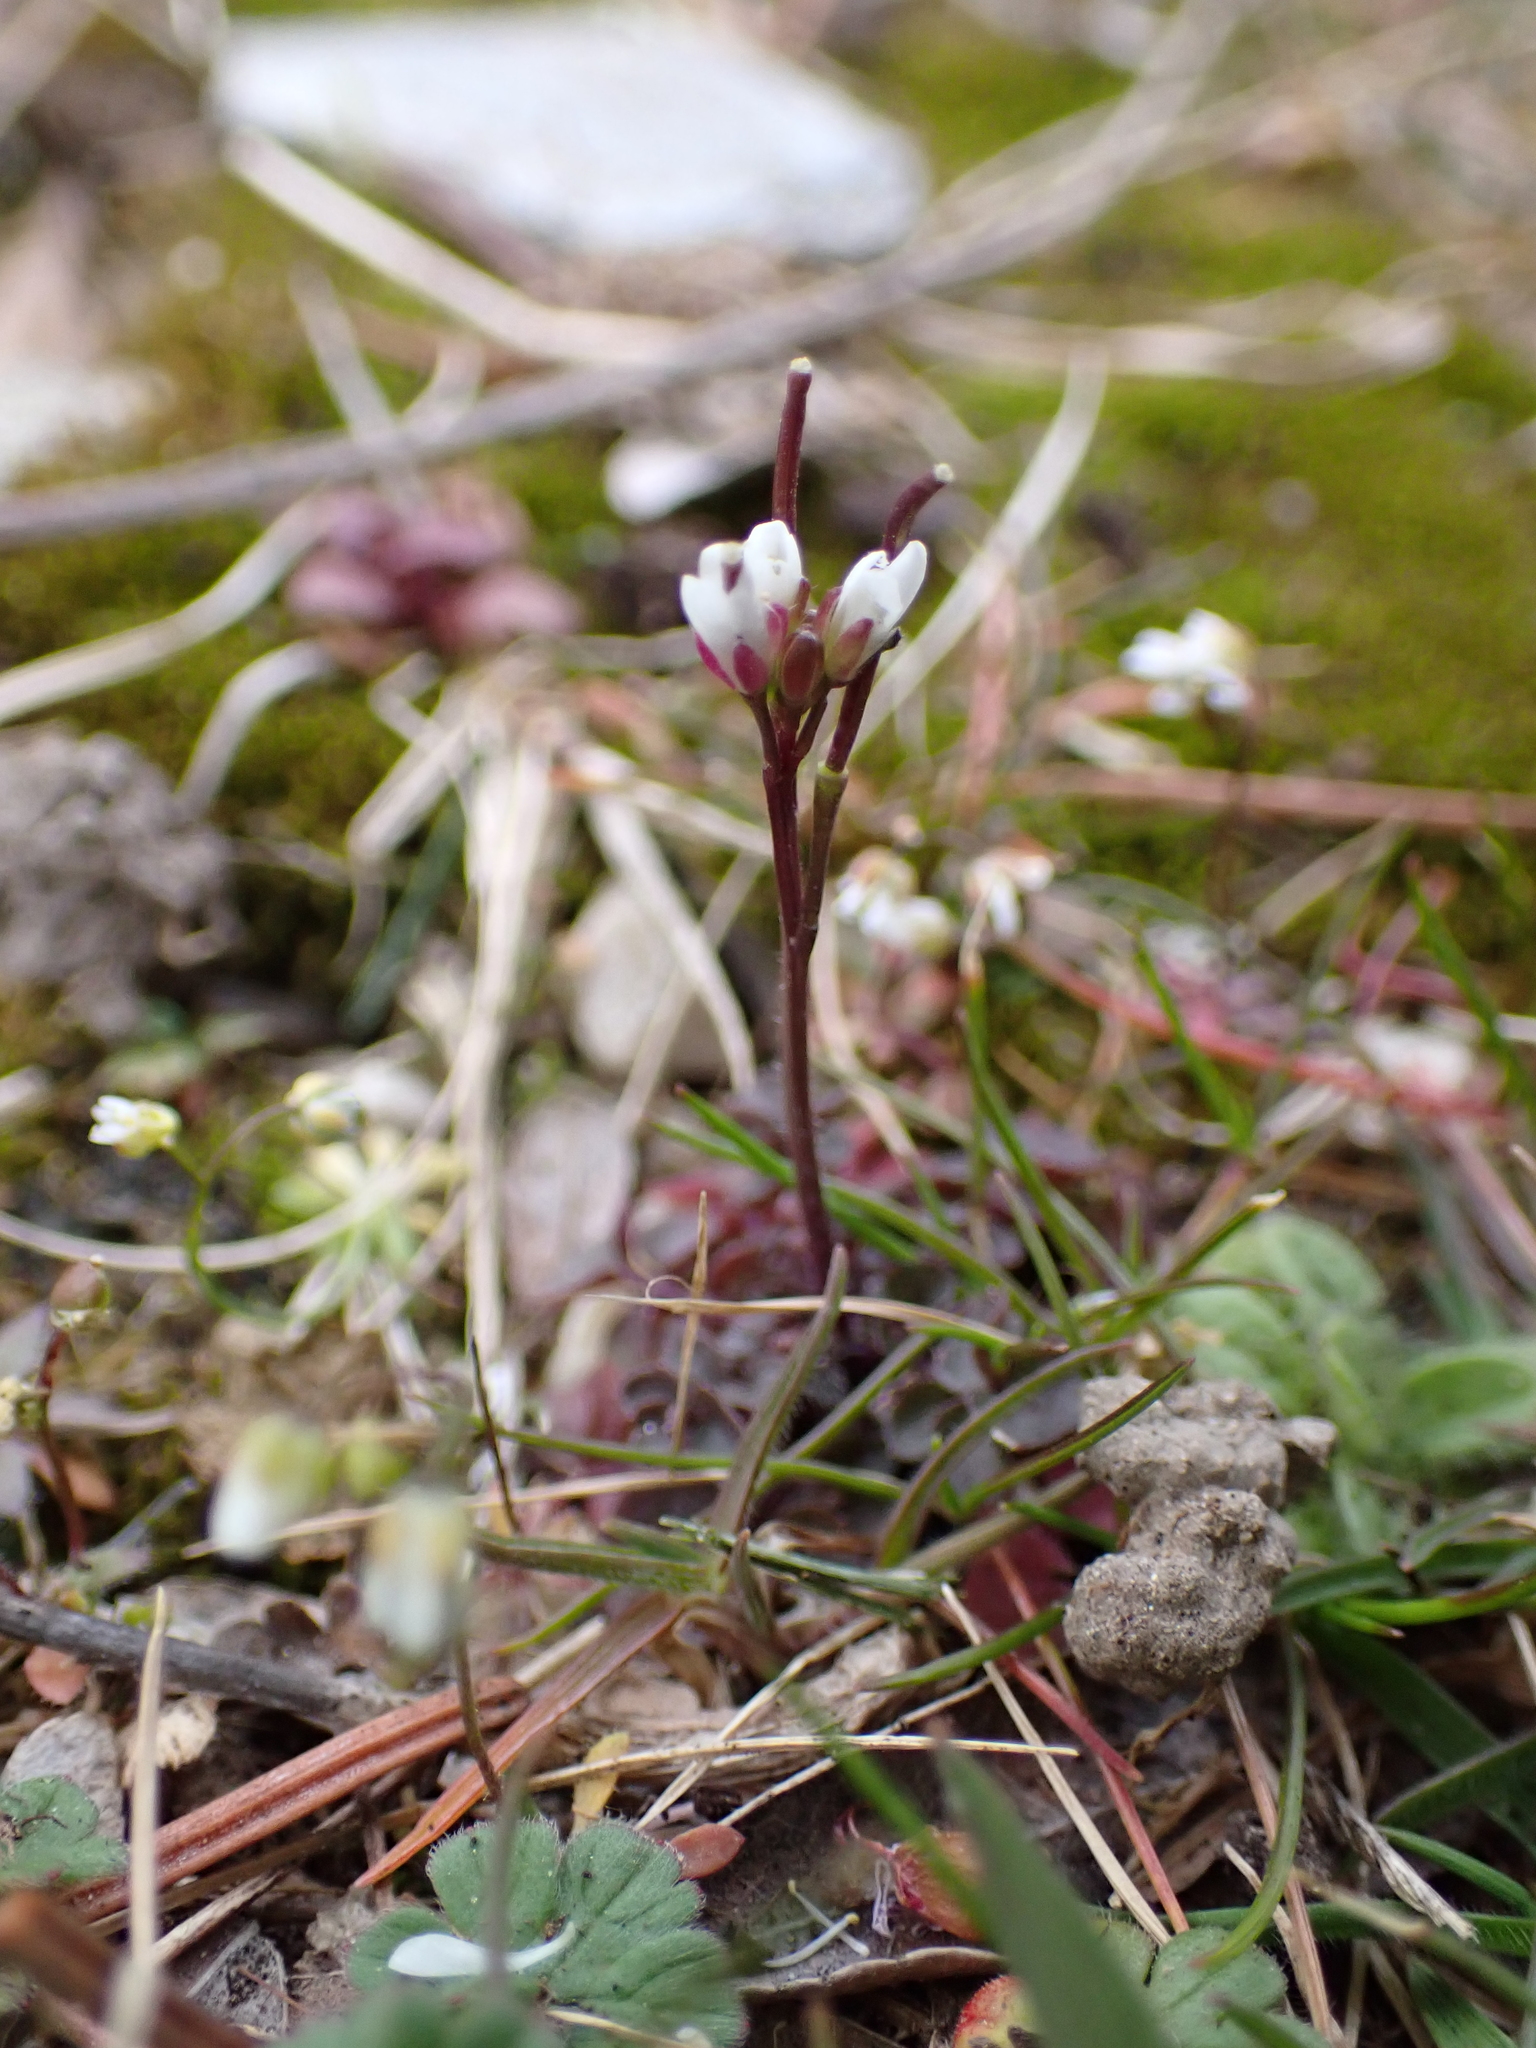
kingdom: Plantae
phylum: Tracheophyta
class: Magnoliopsida
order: Brassicales
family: Brassicaceae
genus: Cardamine
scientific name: Cardamine hirsuta
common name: Hairy bittercress
